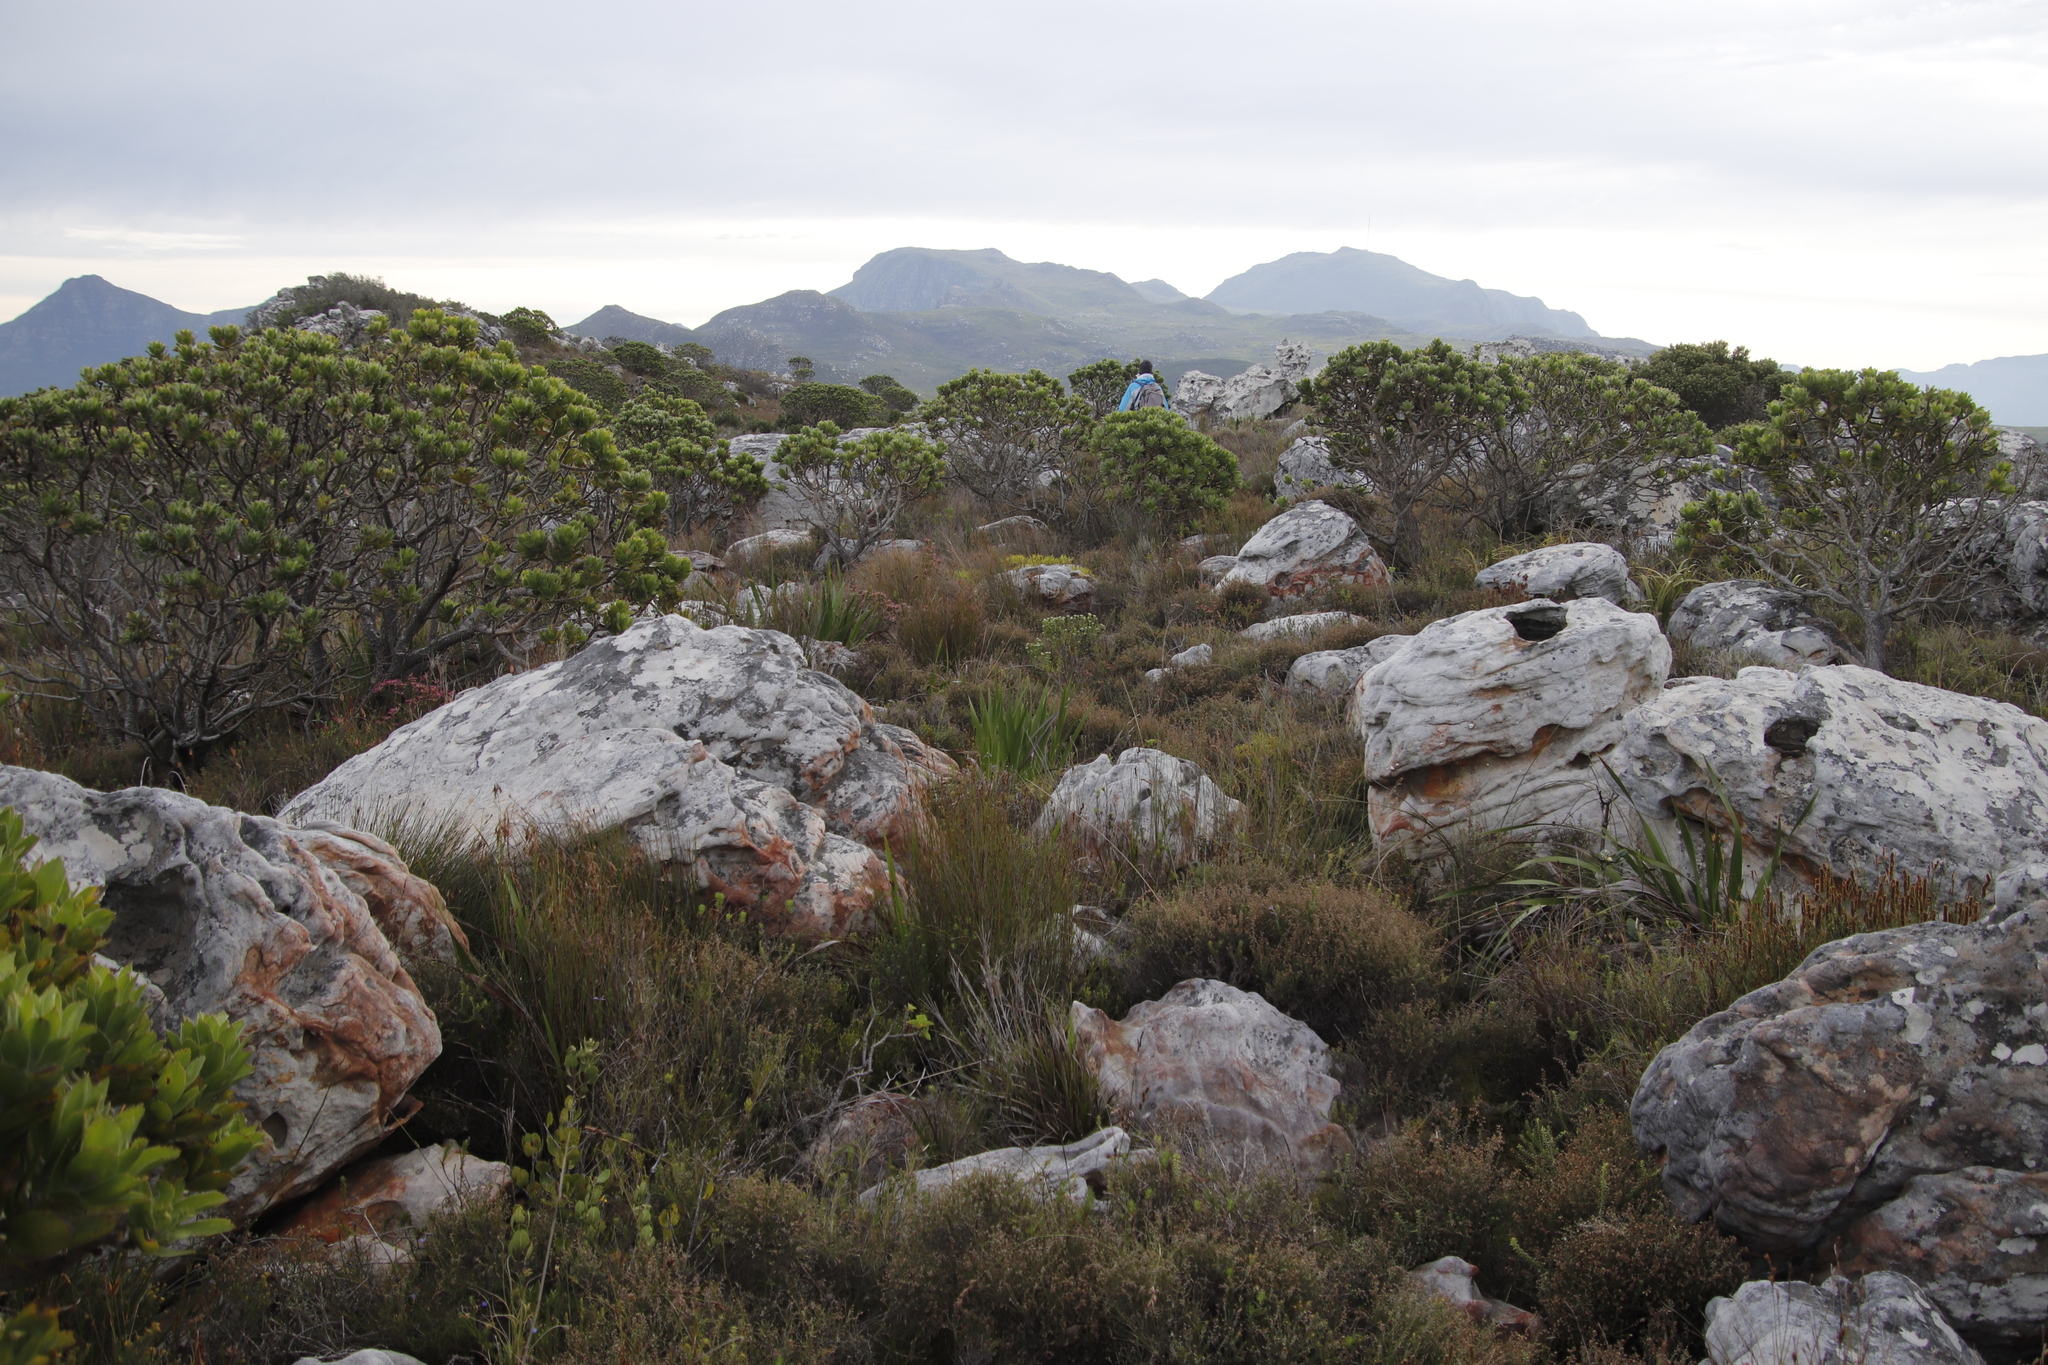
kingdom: Plantae
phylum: Tracheophyta
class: Magnoliopsida
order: Proteales
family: Proteaceae
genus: Leucospermum
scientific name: Leucospermum conocarpodendron
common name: Tree pincushion
